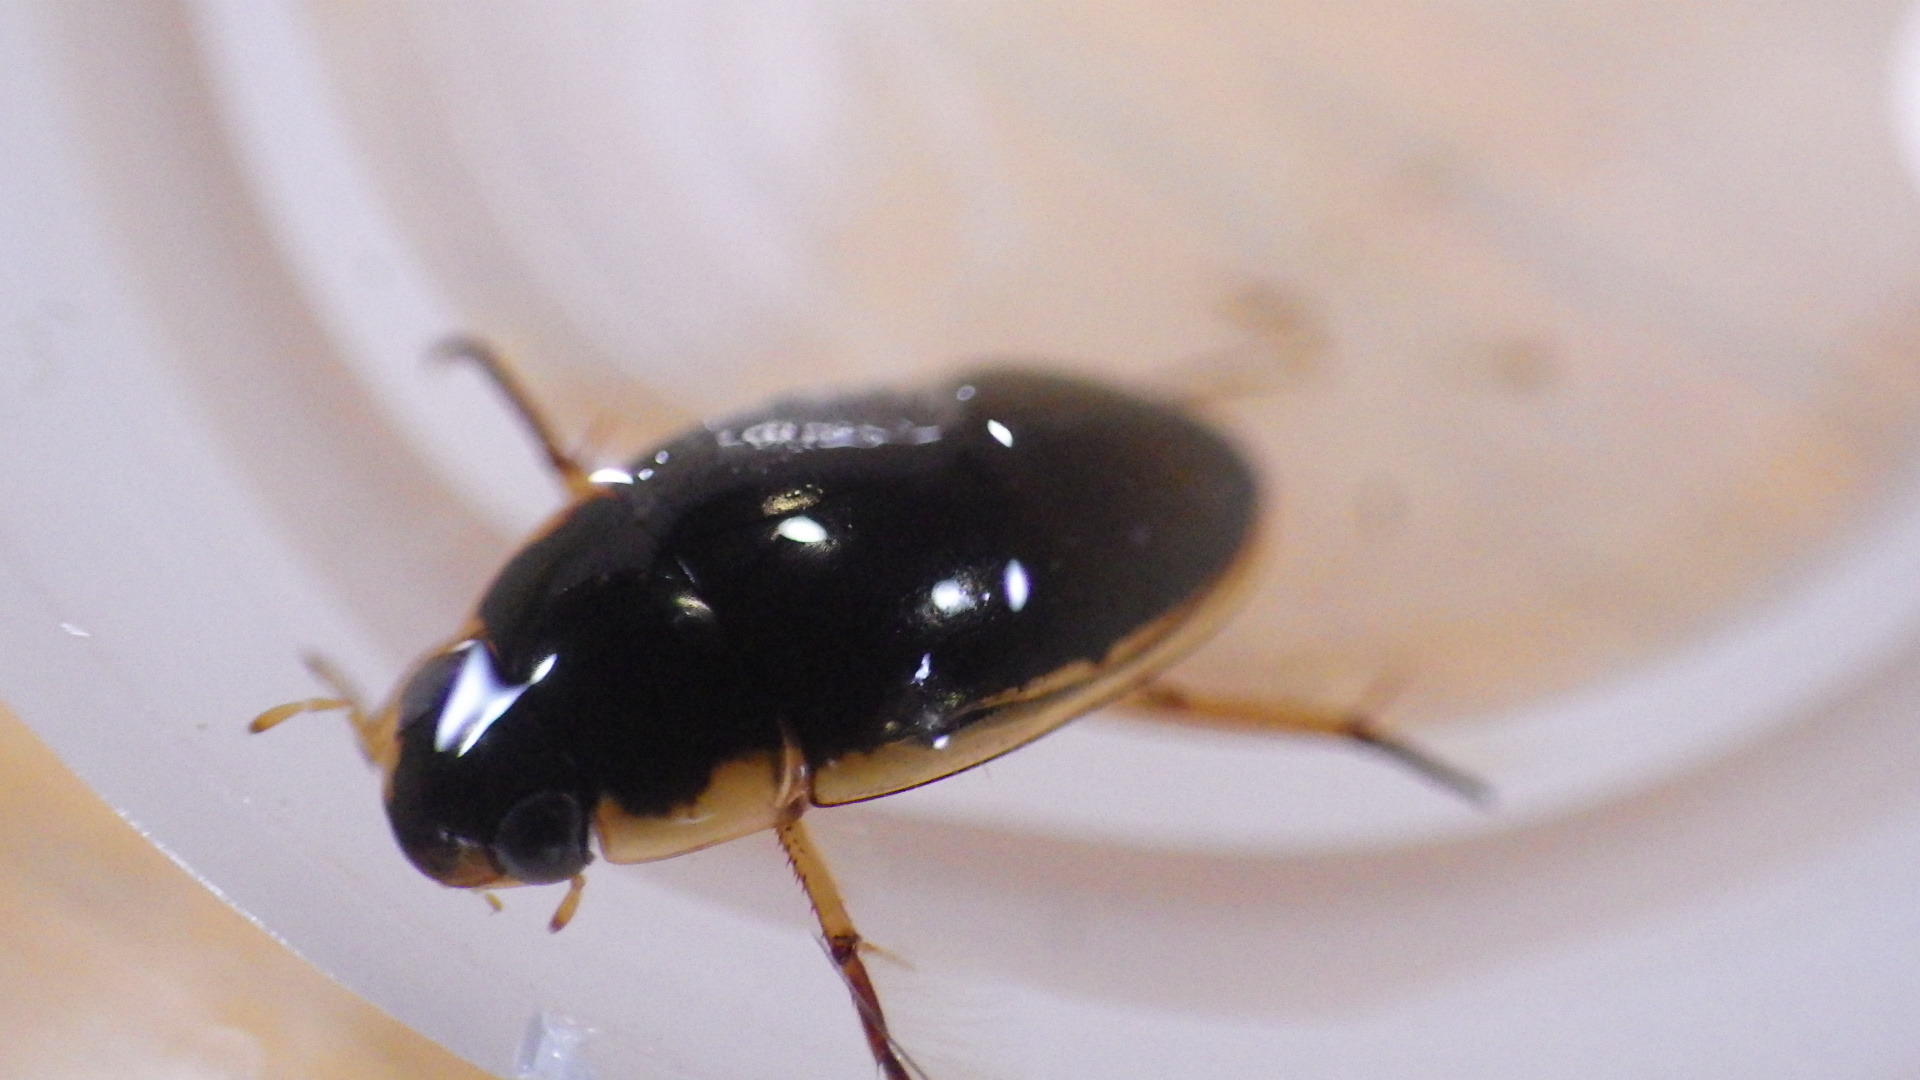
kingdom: Animalia
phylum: Arthropoda
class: Insecta
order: Coleoptera
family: Hydrophilidae
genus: Tropisternus
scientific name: Tropisternus lateralis
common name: Lateral-banded water scavenger beetle
